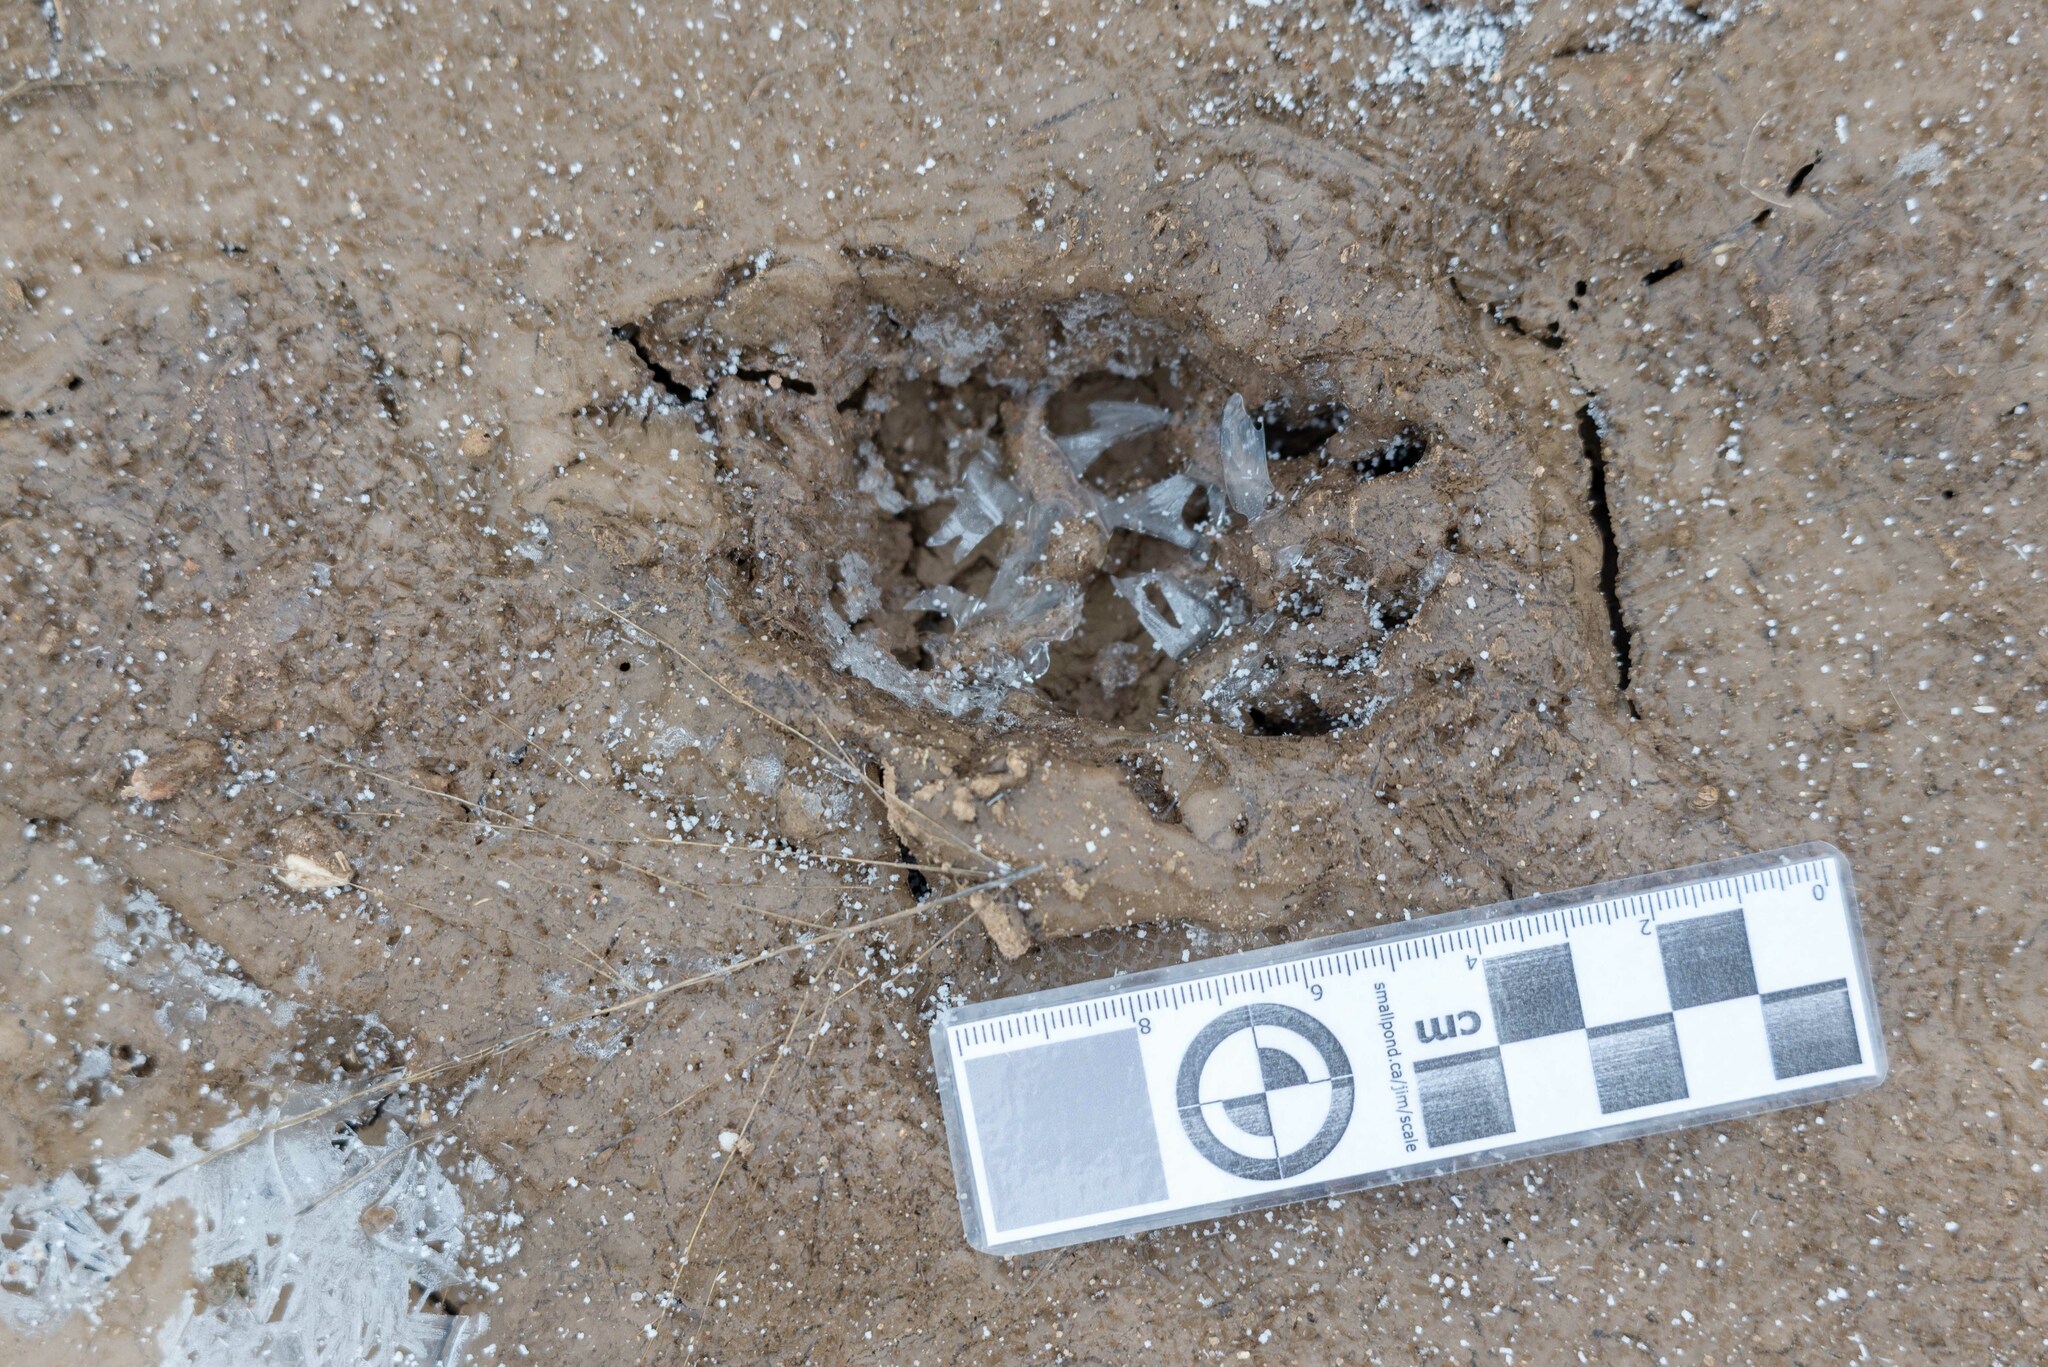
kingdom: Animalia
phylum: Chordata
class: Mammalia
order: Carnivora
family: Mustelidae
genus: Meles
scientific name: Meles meles
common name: Eurasian badger
